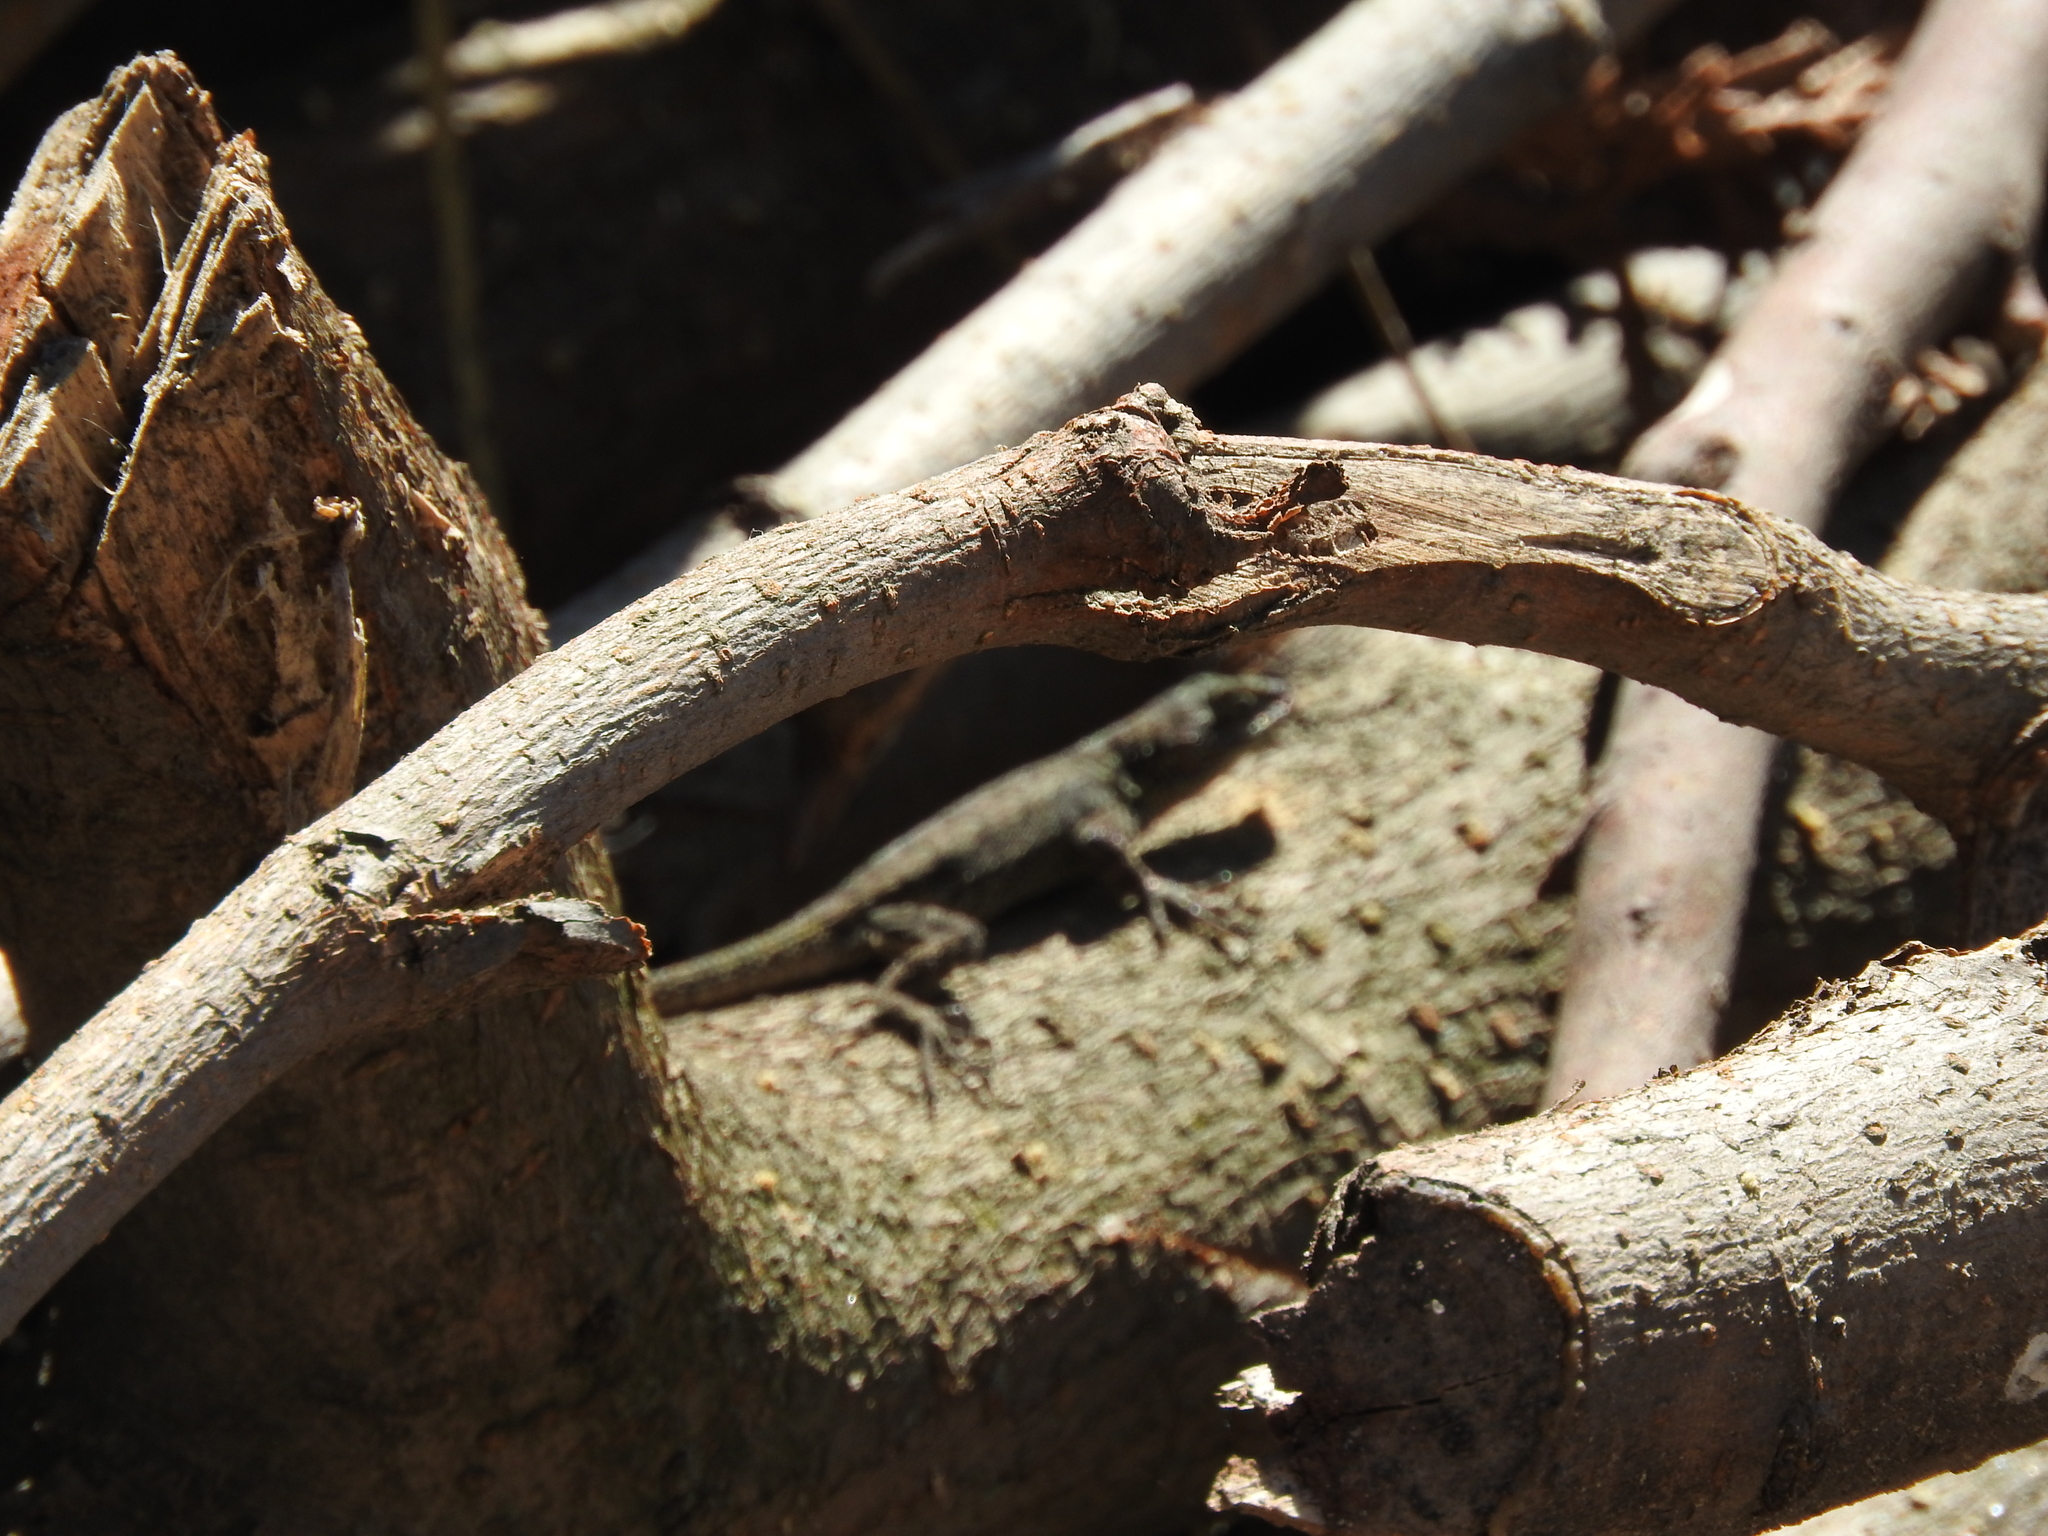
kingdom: Animalia
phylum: Chordata
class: Squamata
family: Phrynosomatidae
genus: Sceloporus
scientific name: Sceloporus grammicus
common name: Mesquite lizard
